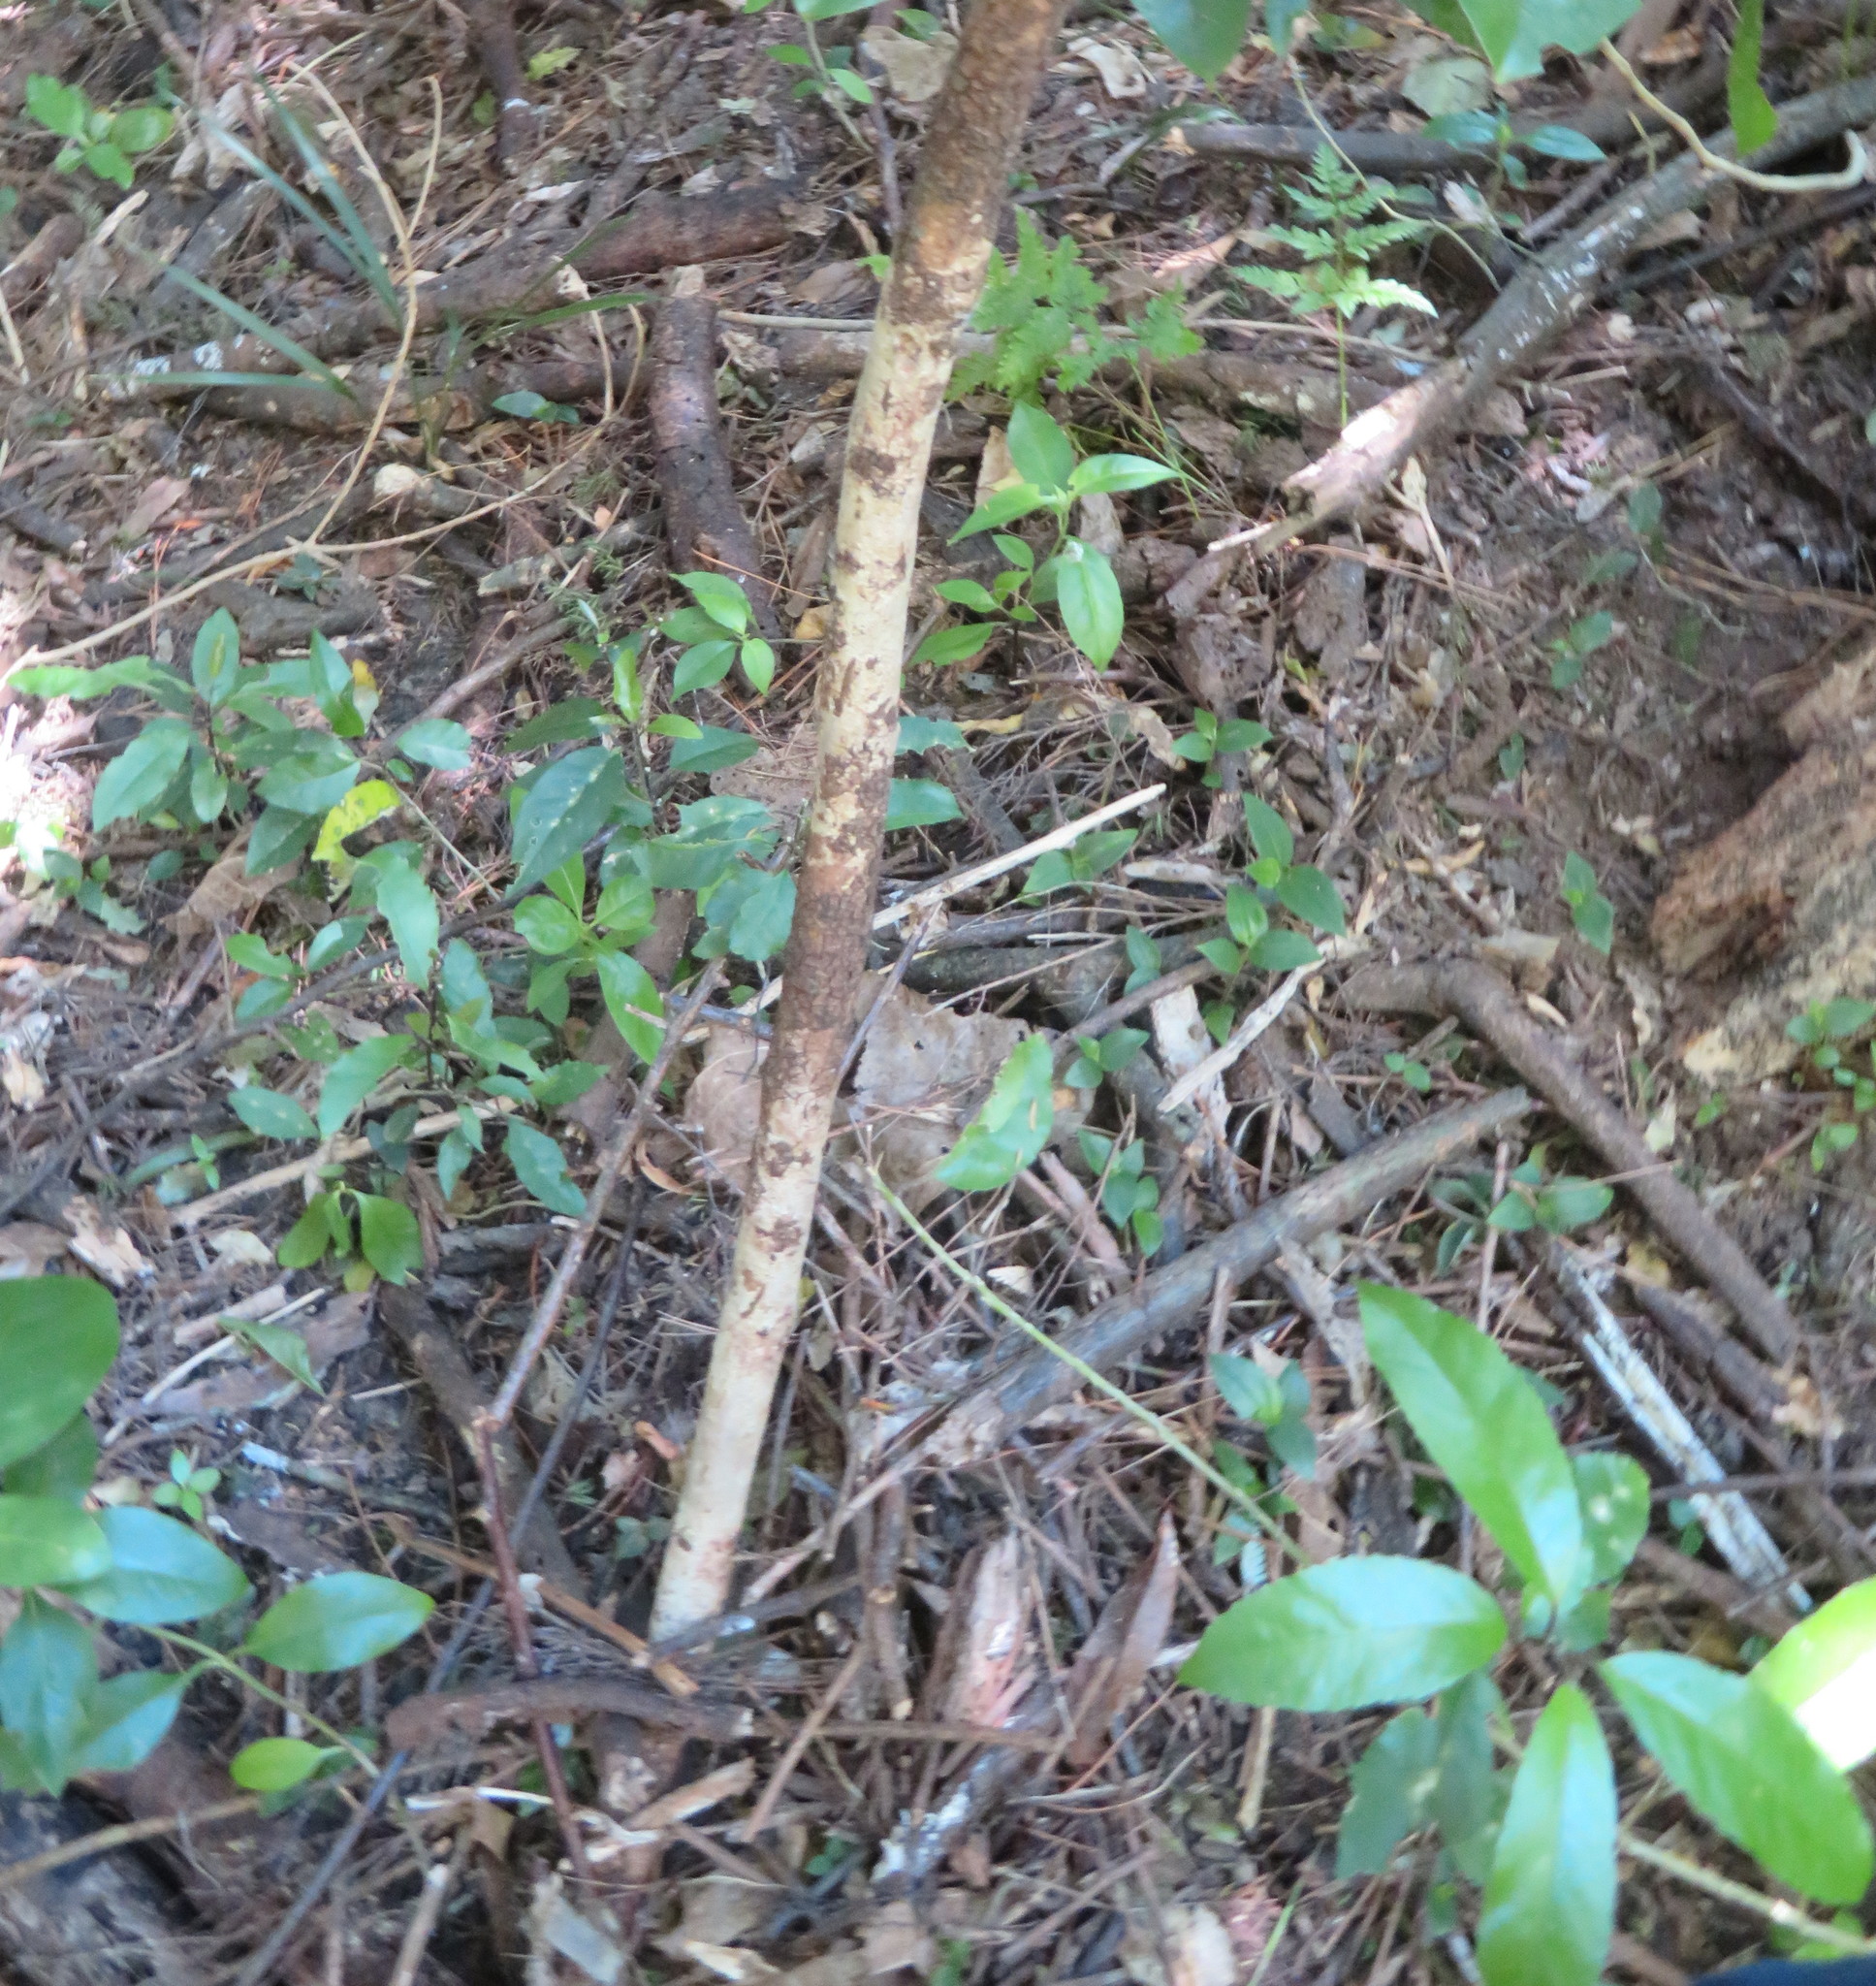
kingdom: Plantae
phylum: Tracheophyta
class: Magnoliopsida
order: Malpighiales
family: Violaceae
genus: Melicytus
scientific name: Melicytus ramiflorus
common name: Mahoe
